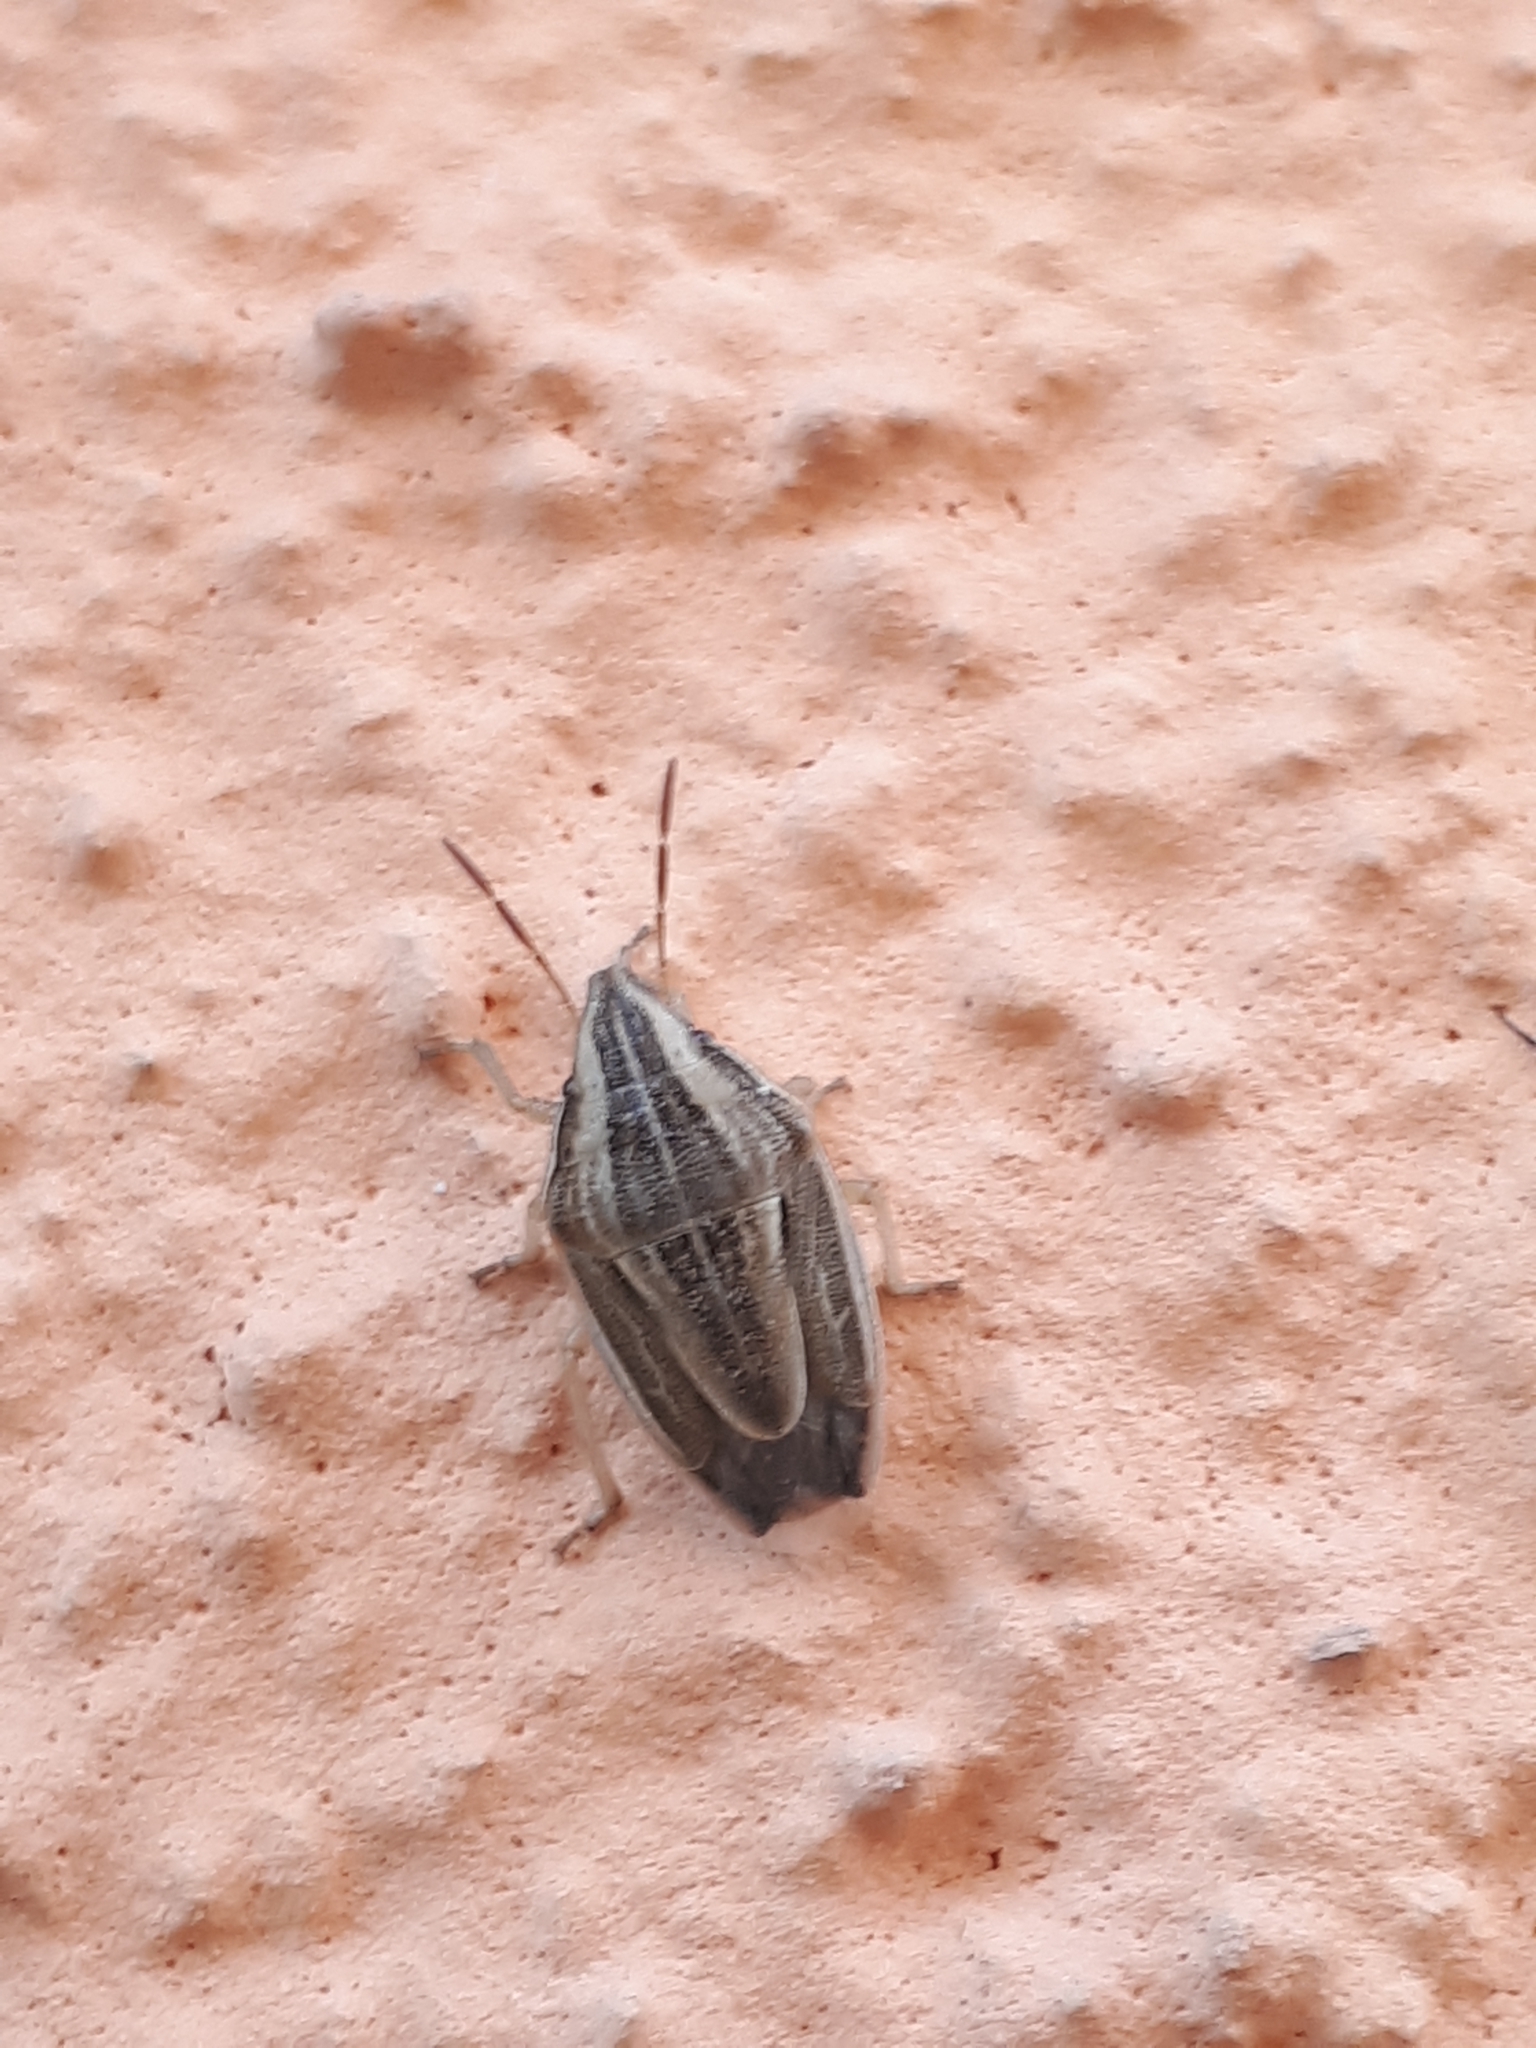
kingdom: Animalia
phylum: Arthropoda
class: Insecta
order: Hemiptera
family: Pentatomidae
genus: Aelia
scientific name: Aelia acuminata
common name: Bishop's mitre
